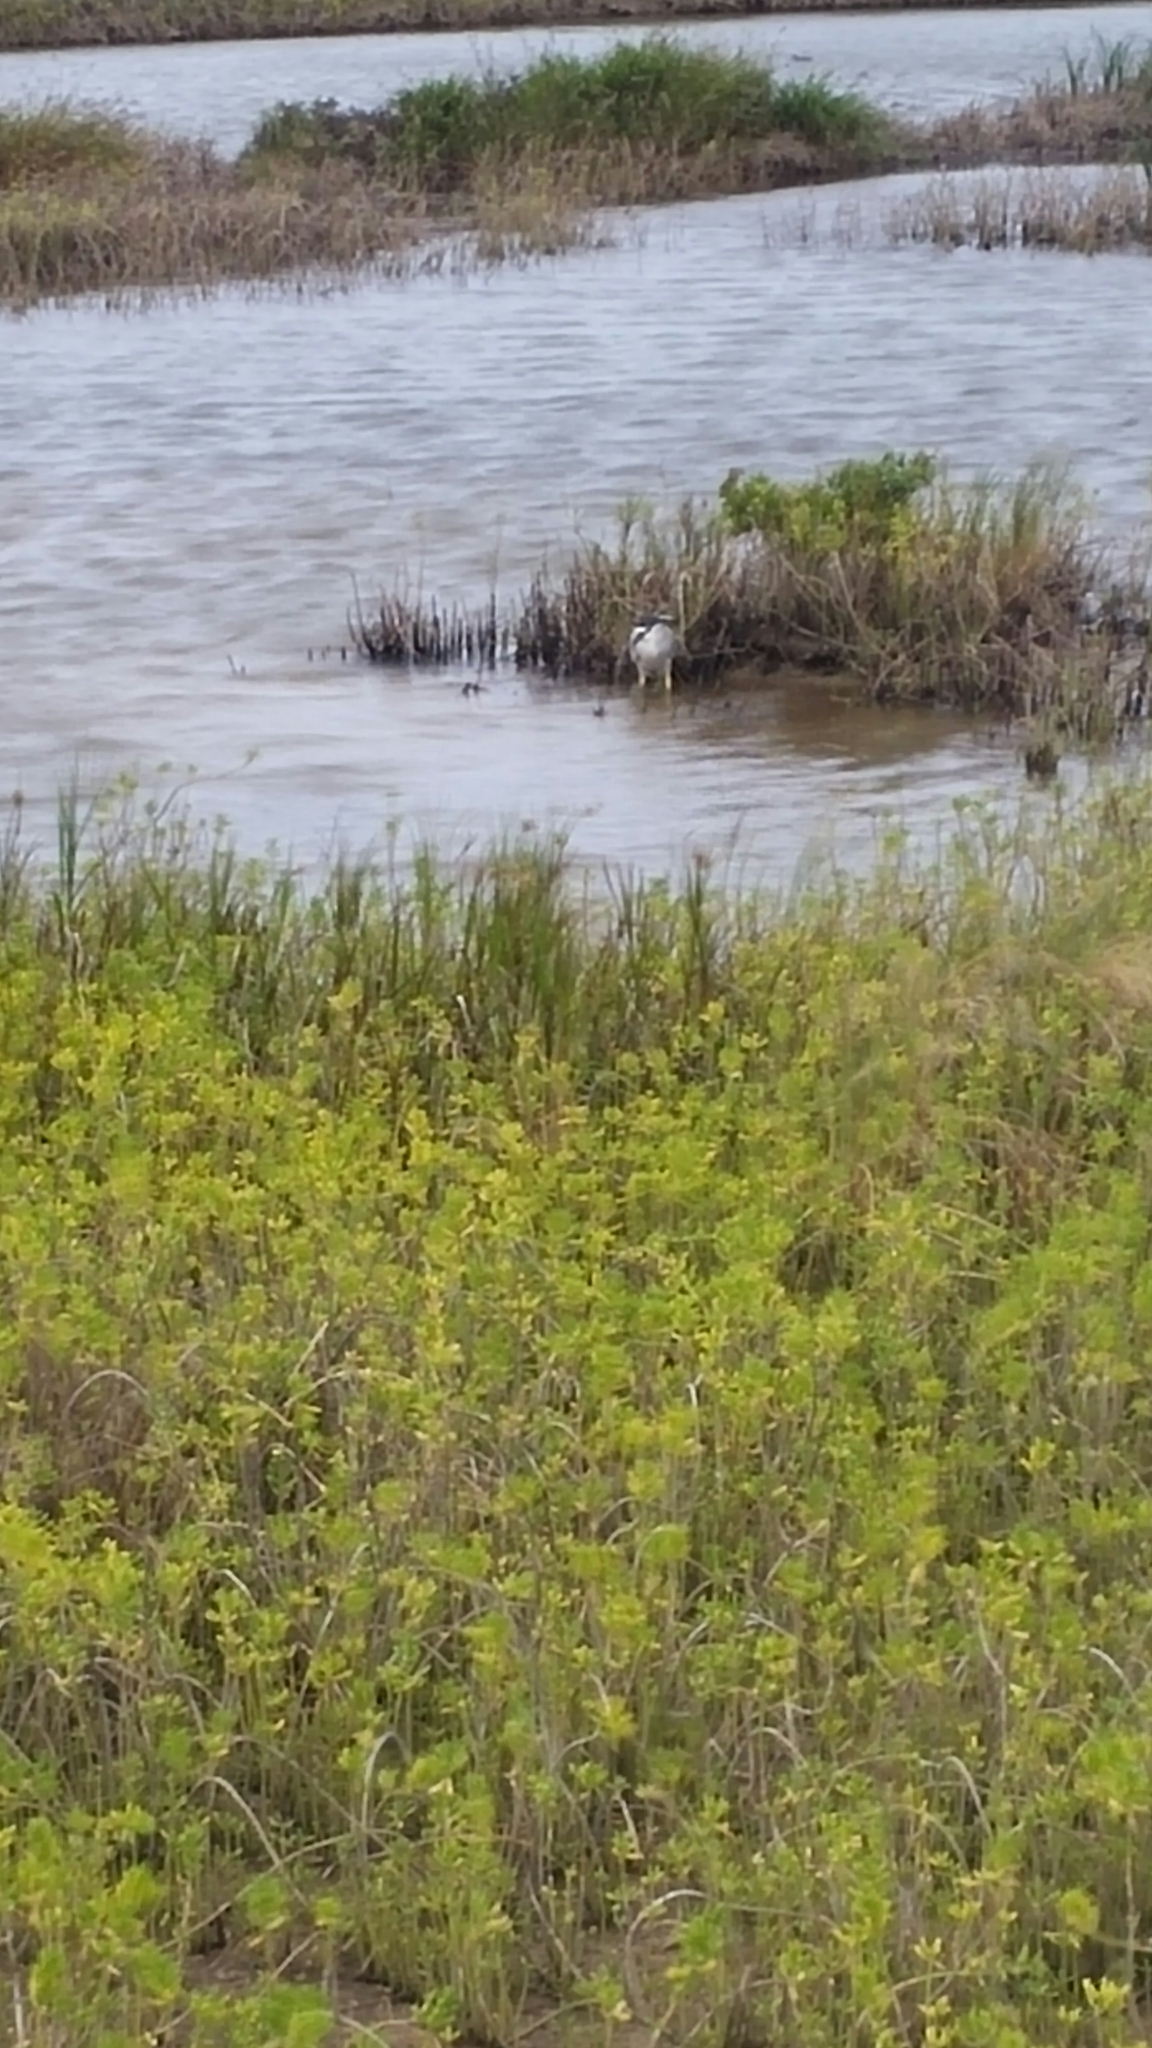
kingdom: Animalia
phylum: Chordata
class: Aves
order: Pelecaniformes
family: Ardeidae
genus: Nycticorax
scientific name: Nycticorax nycticorax
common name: Black-crowned night heron
